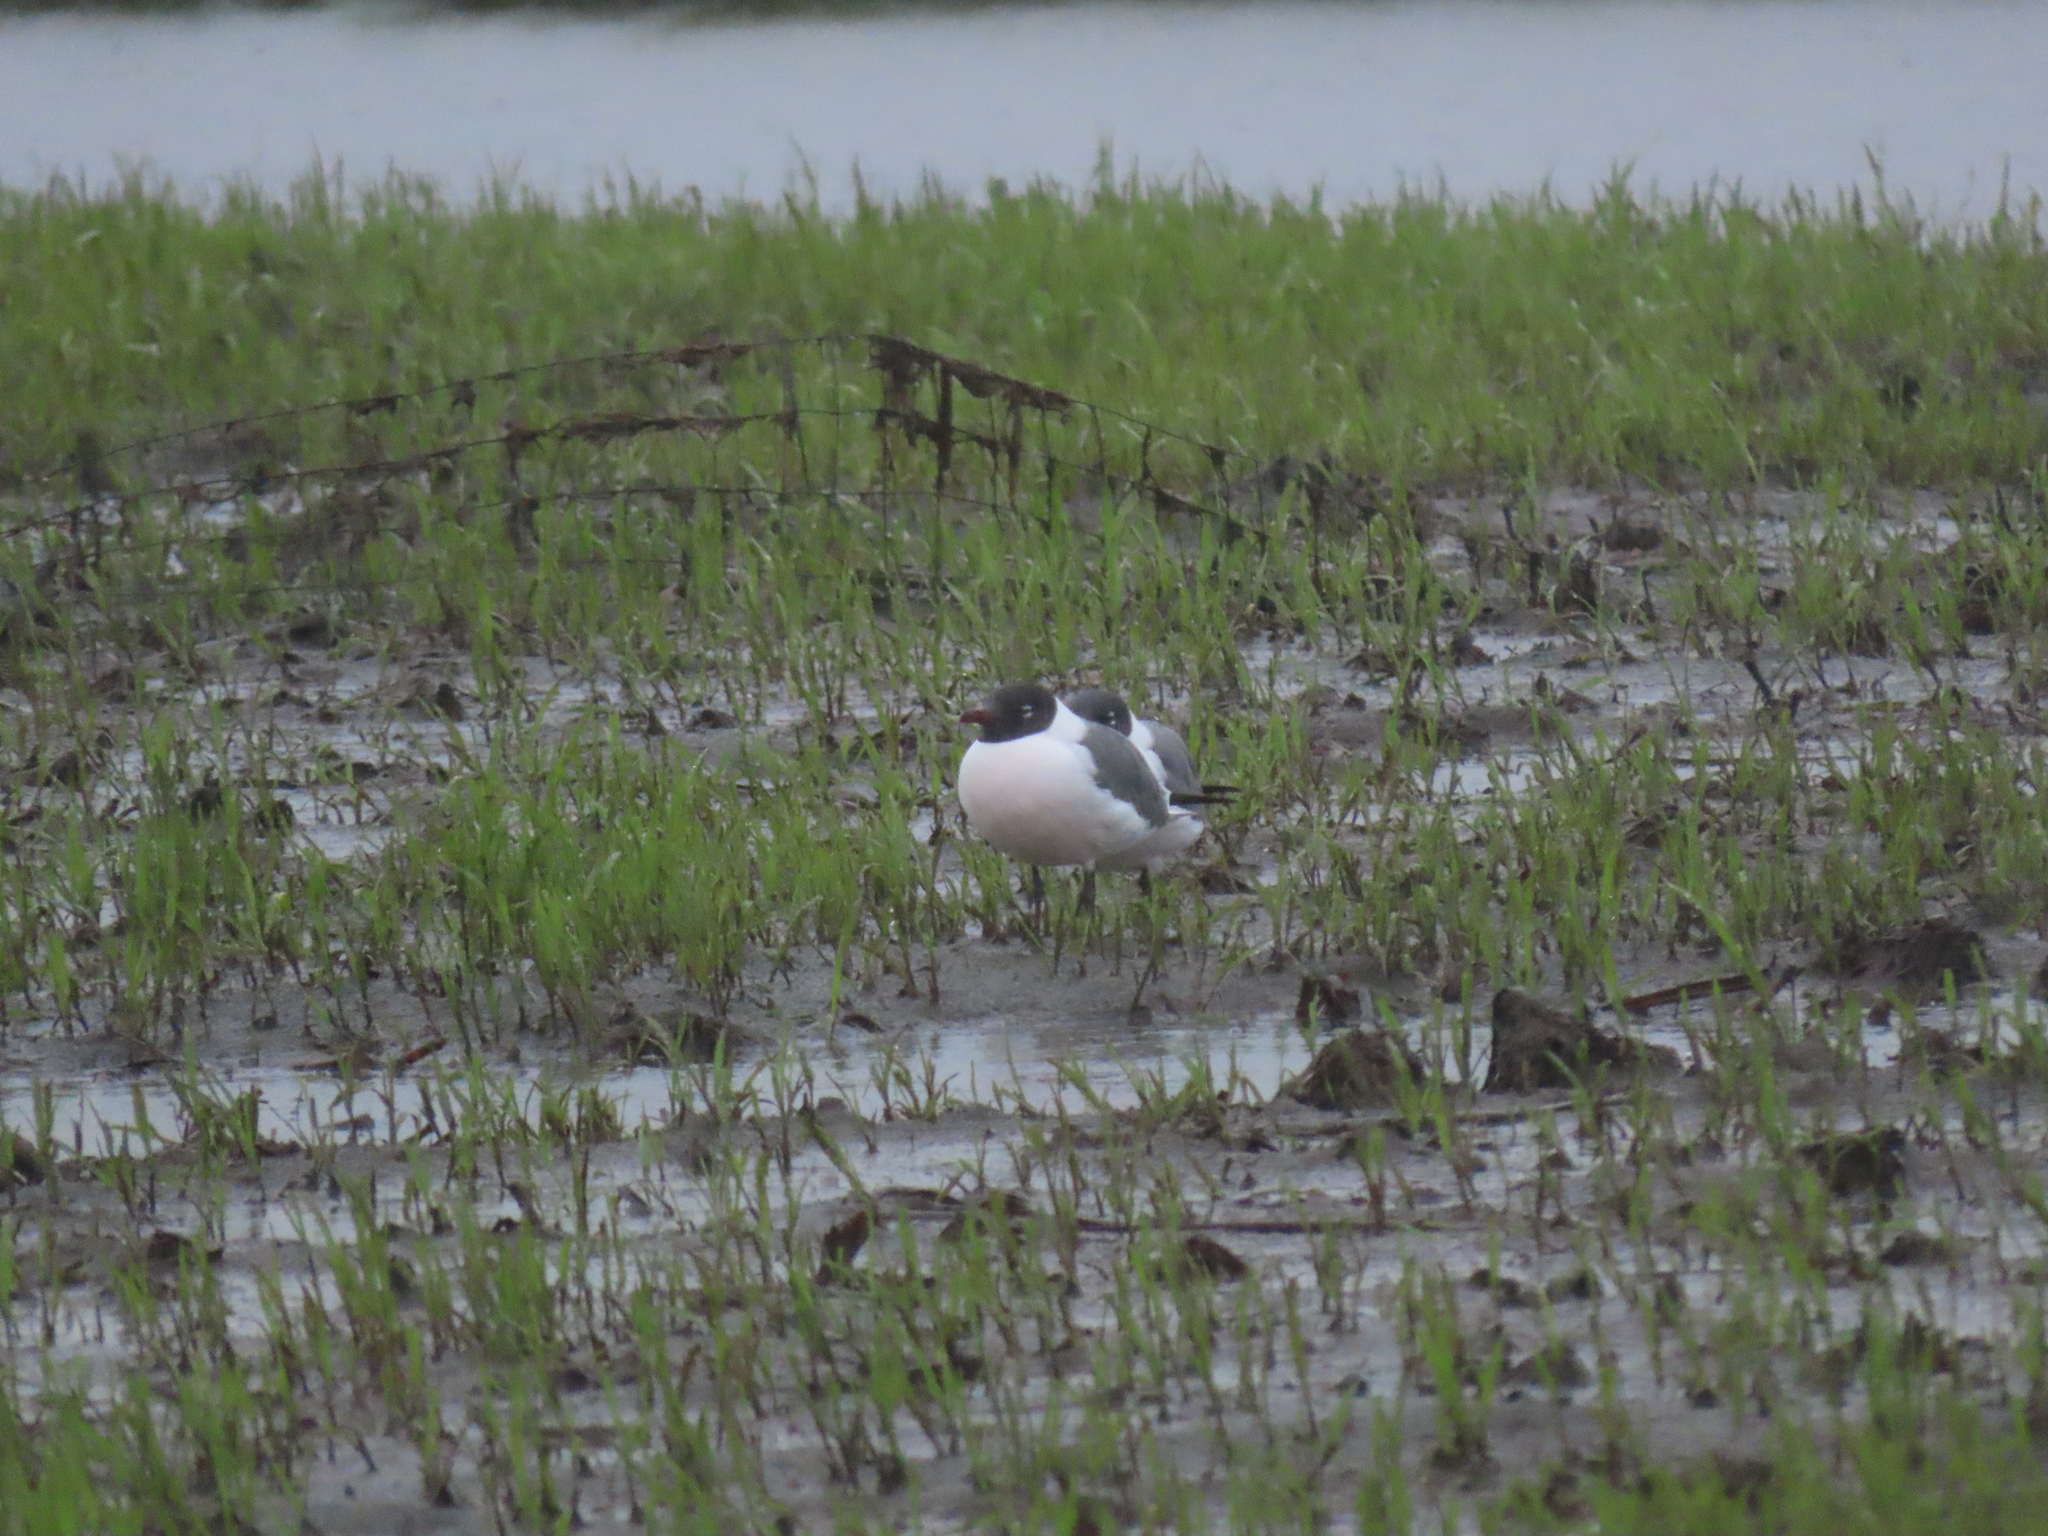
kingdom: Animalia
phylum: Chordata
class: Aves
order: Charadriiformes
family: Laridae
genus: Leucophaeus
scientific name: Leucophaeus atricilla
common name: Laughing gull
